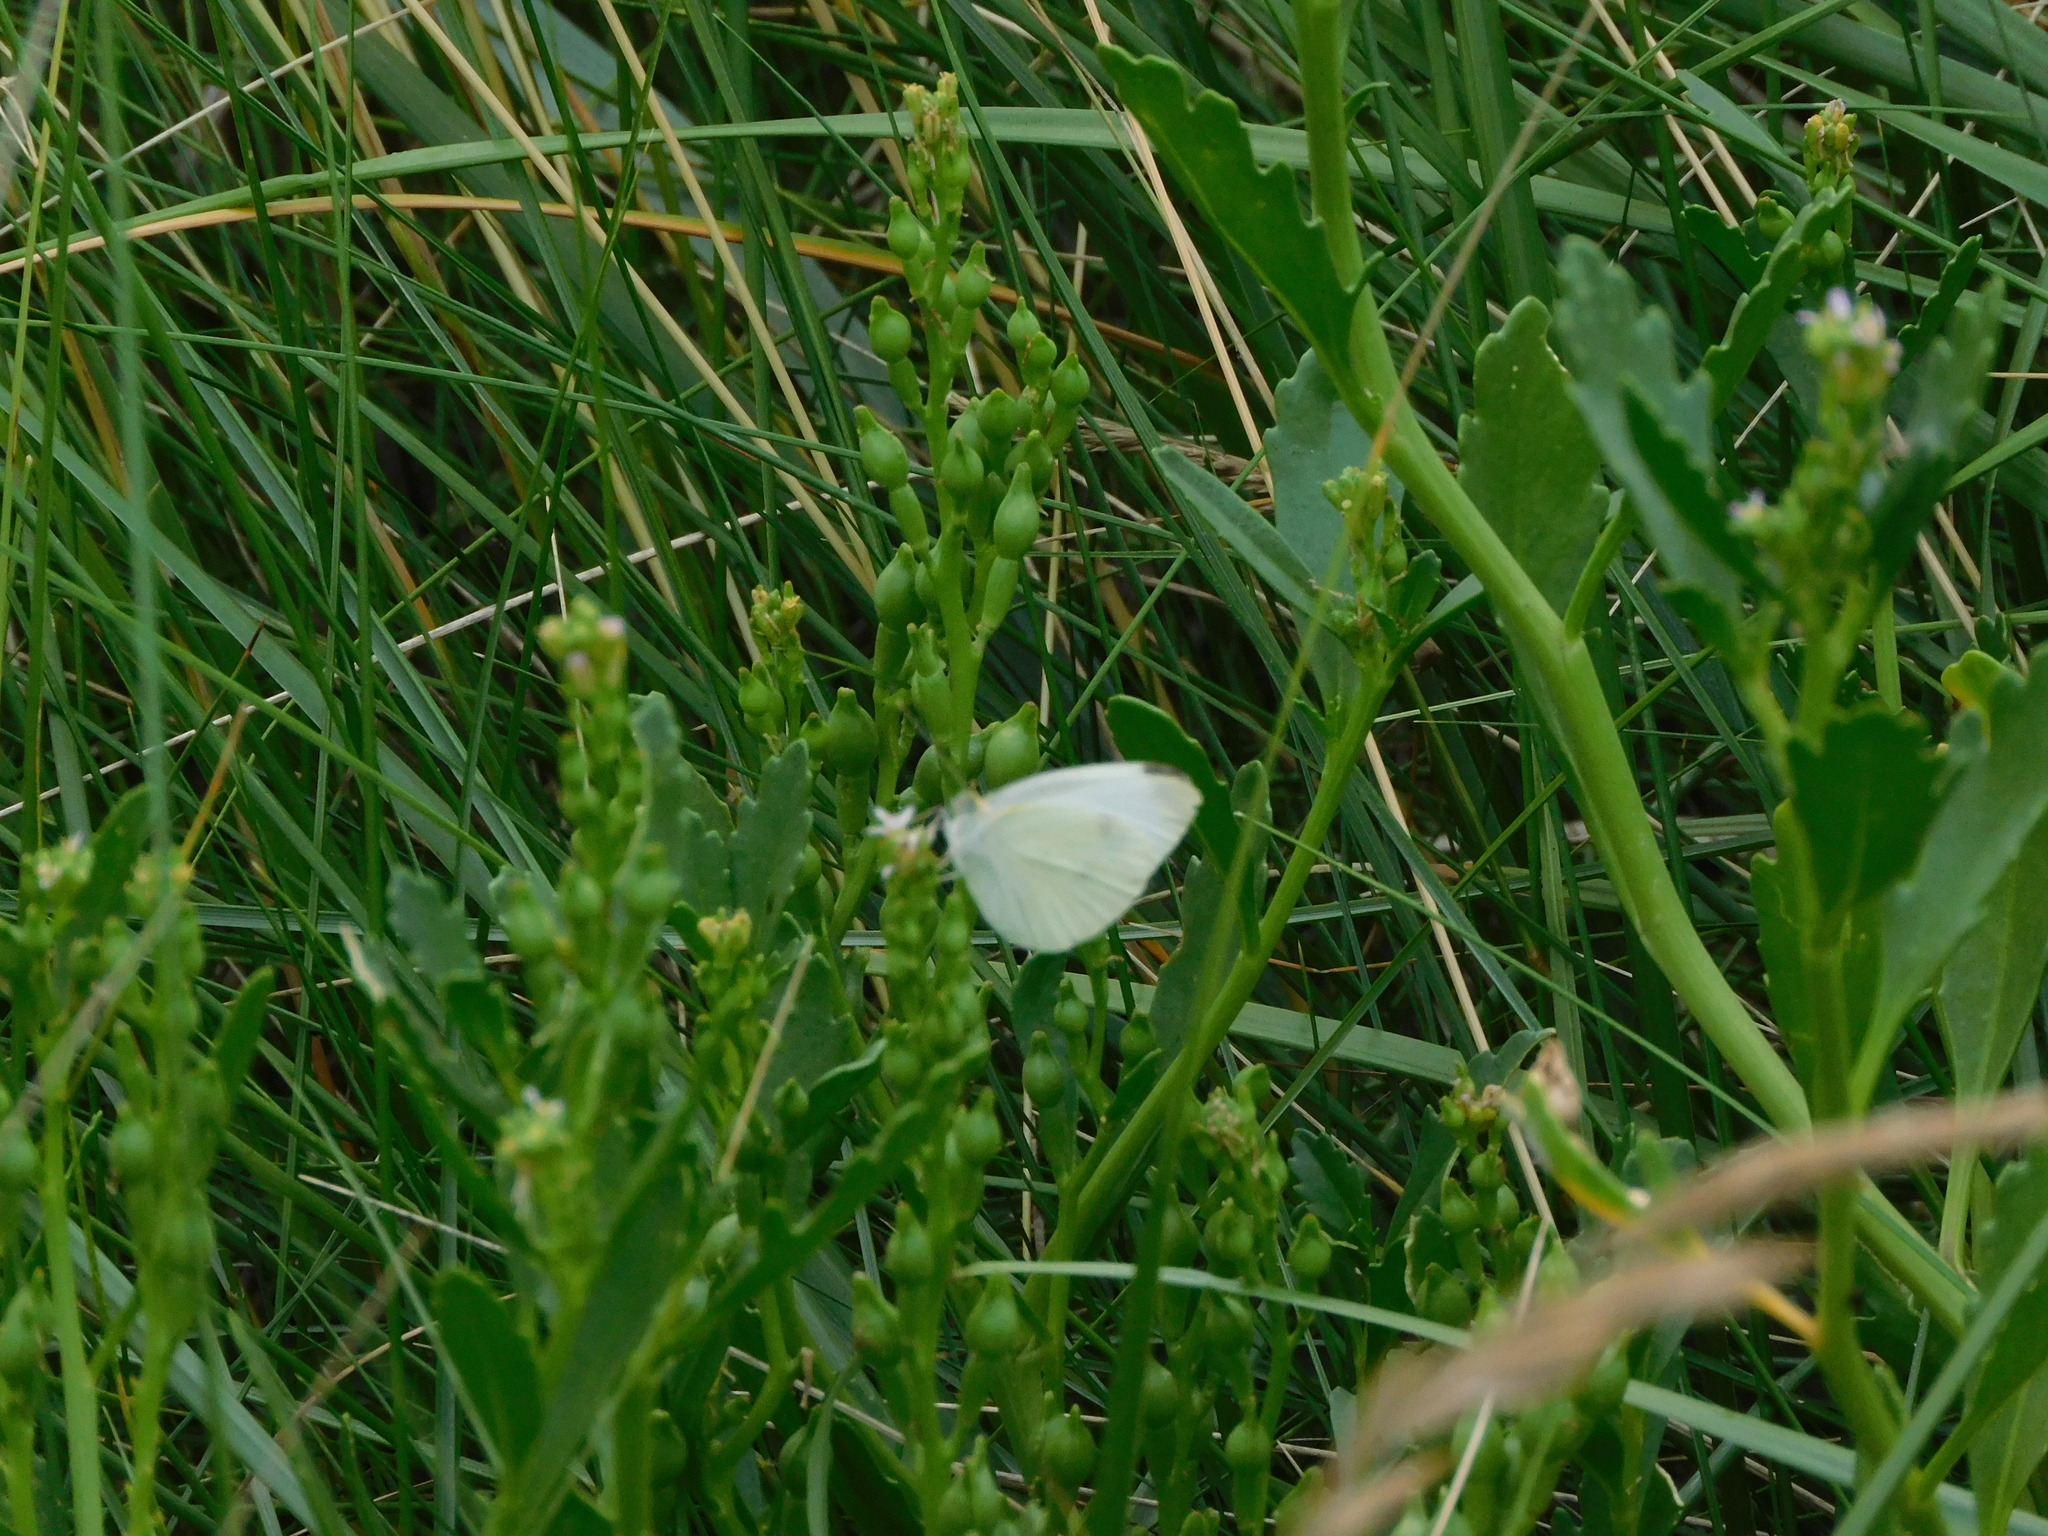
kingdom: Animalia
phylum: Arthropoda
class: Insecta
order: Lepidoptera
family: Pieridae
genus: Pieris
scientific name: Pieris rapae
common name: Small white
